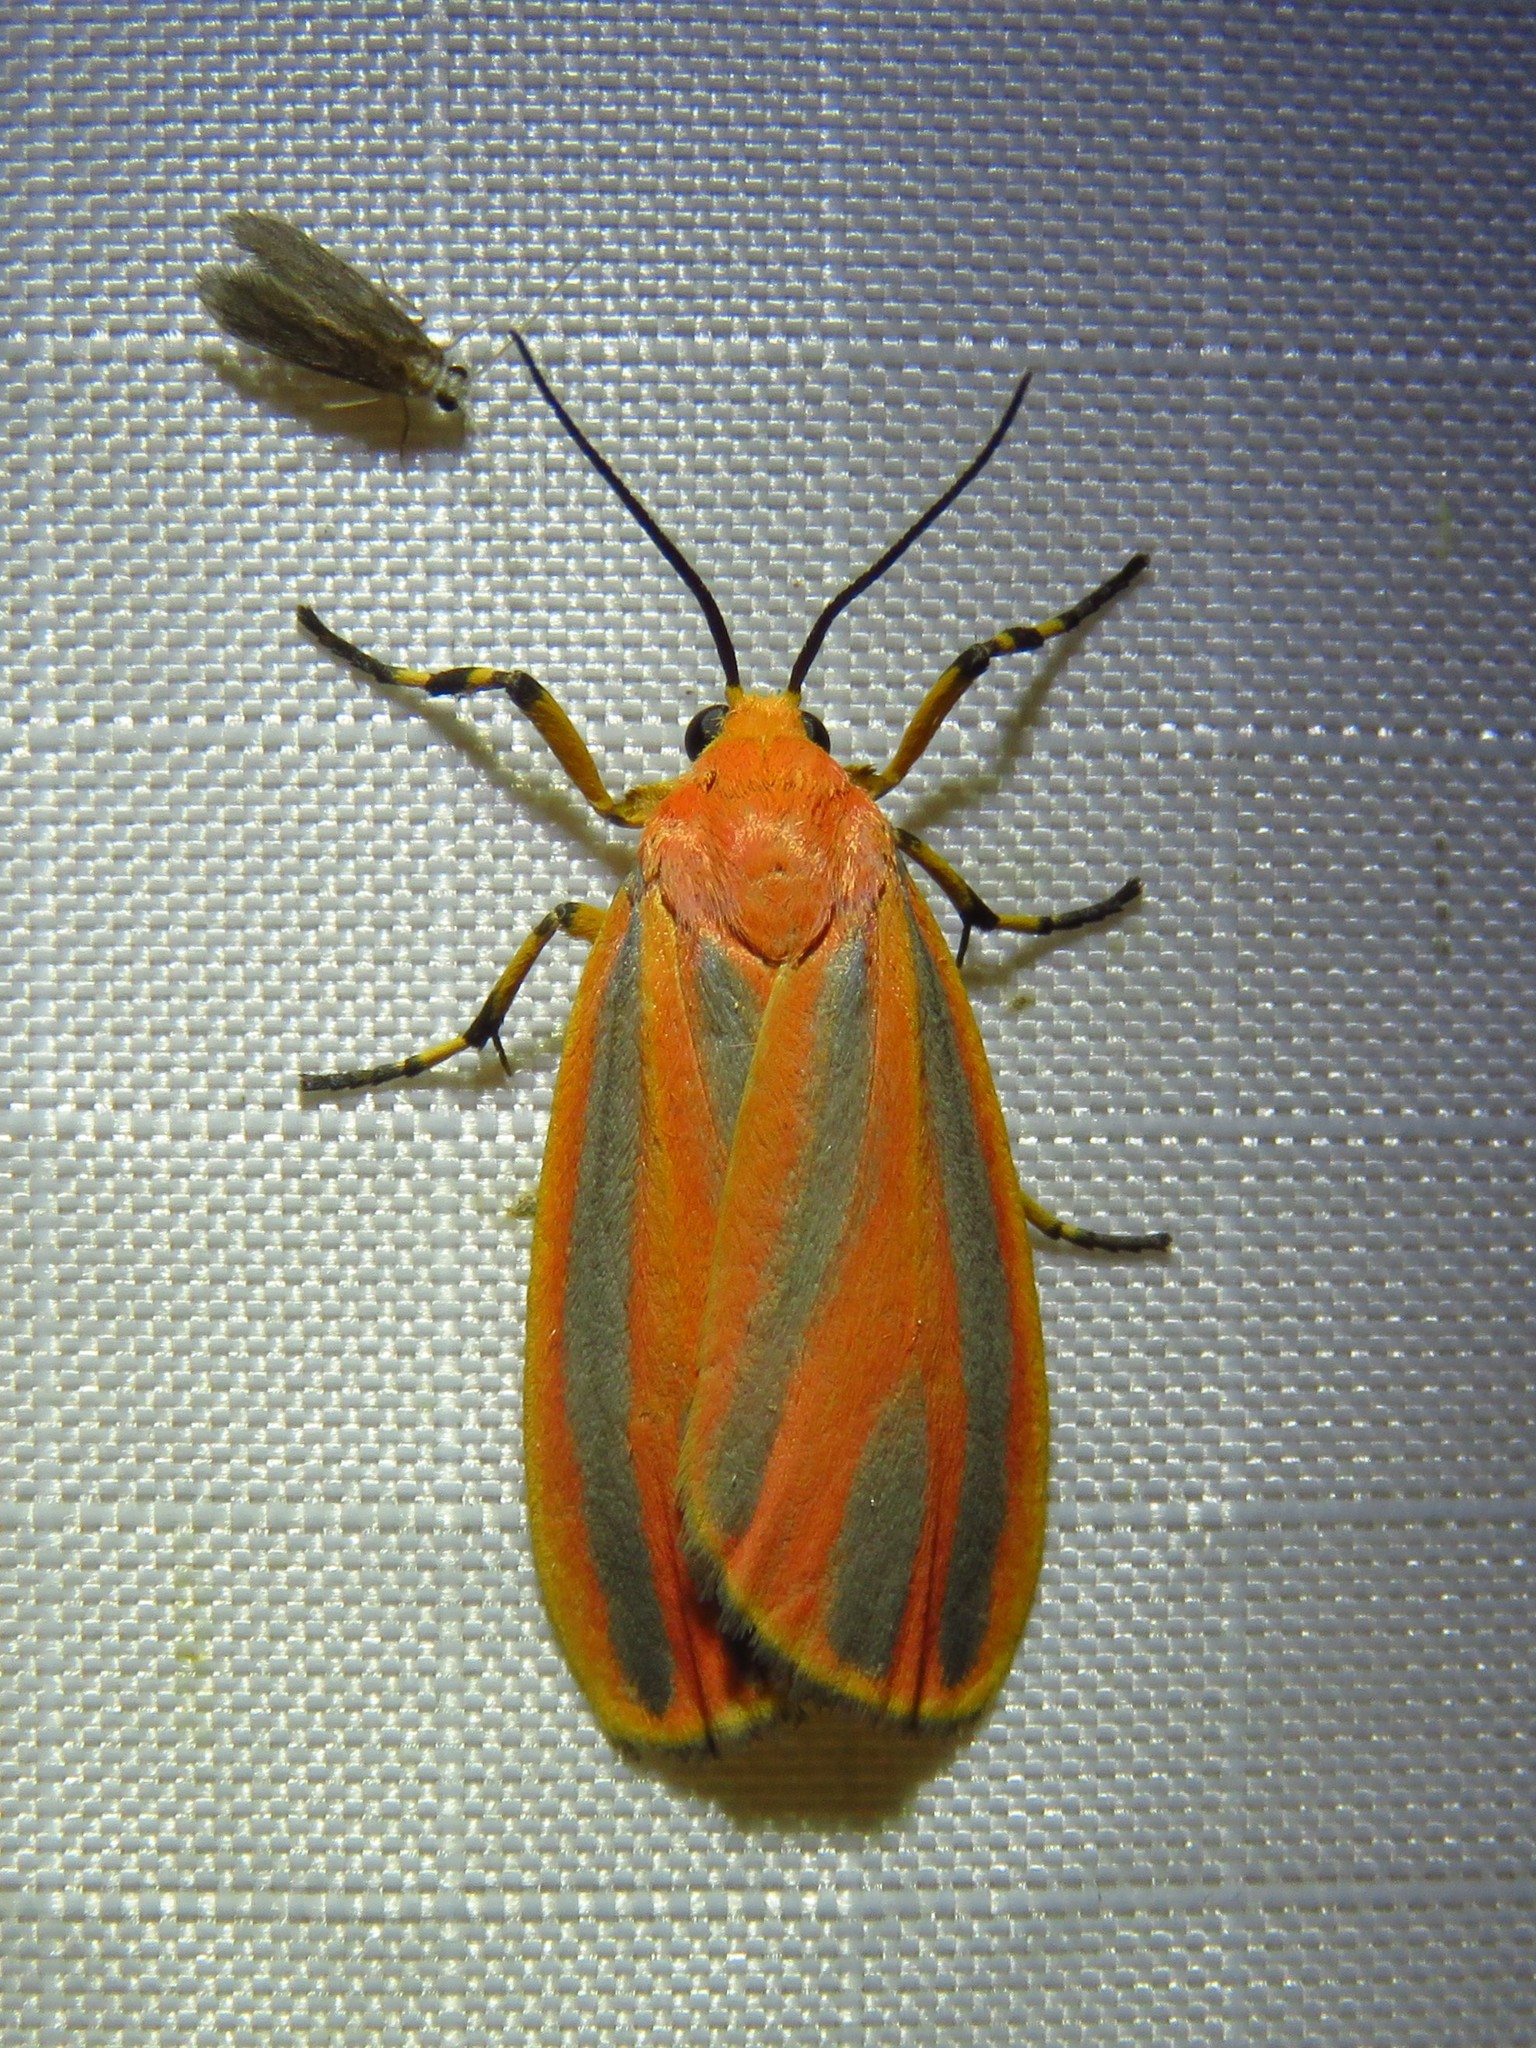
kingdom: Animalia
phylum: Arthropoda
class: Insecta
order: Lepidoptera
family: Erebidae
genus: Hypoprepia
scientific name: Hypoprepia fucosa
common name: Painted lichen moth
